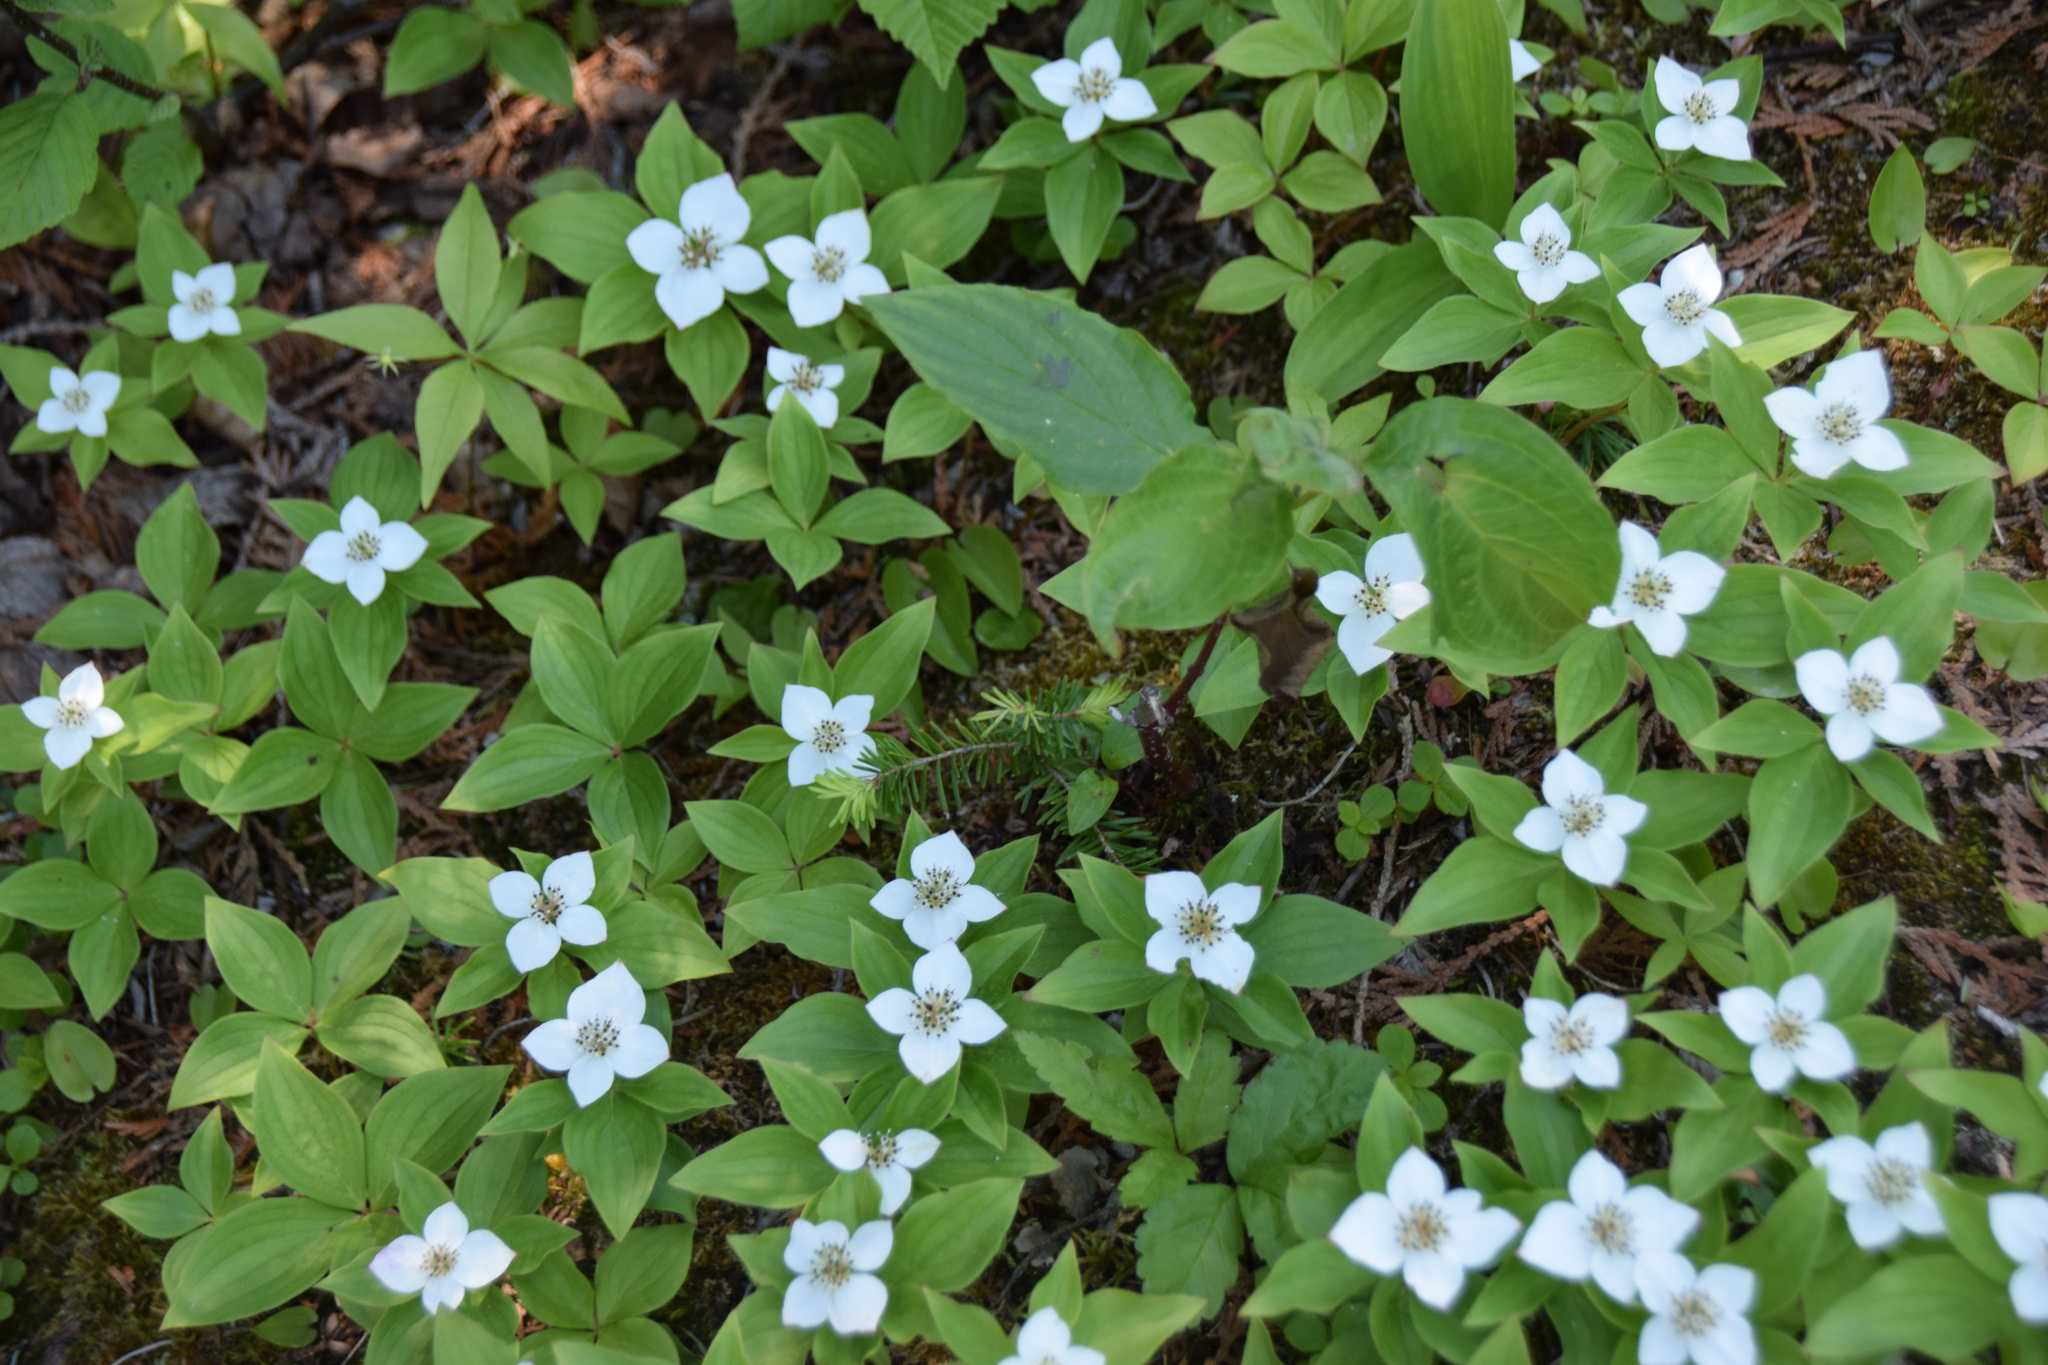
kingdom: Plantae
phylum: Tracheophyta
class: Magnoliopsida
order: Cornales
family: Cornaceae
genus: Cornus
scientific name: Cornus canadensis
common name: Creeping dogwood
